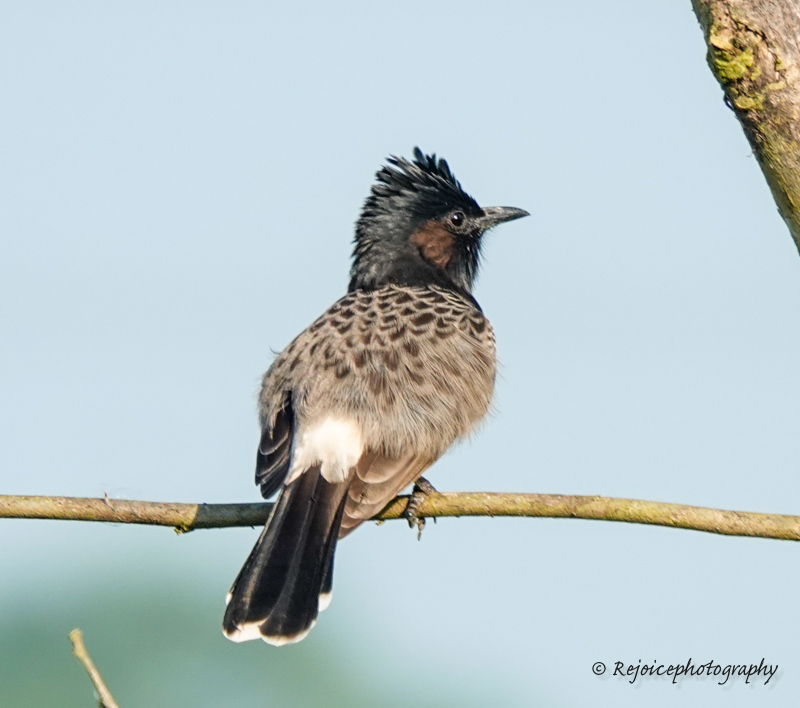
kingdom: Animalia
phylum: Chordata
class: Aves
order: Passeriformes
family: Pycnonotidae
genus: Pycnonotus
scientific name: Pycnonotus cafer
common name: Red-vented bulbul
